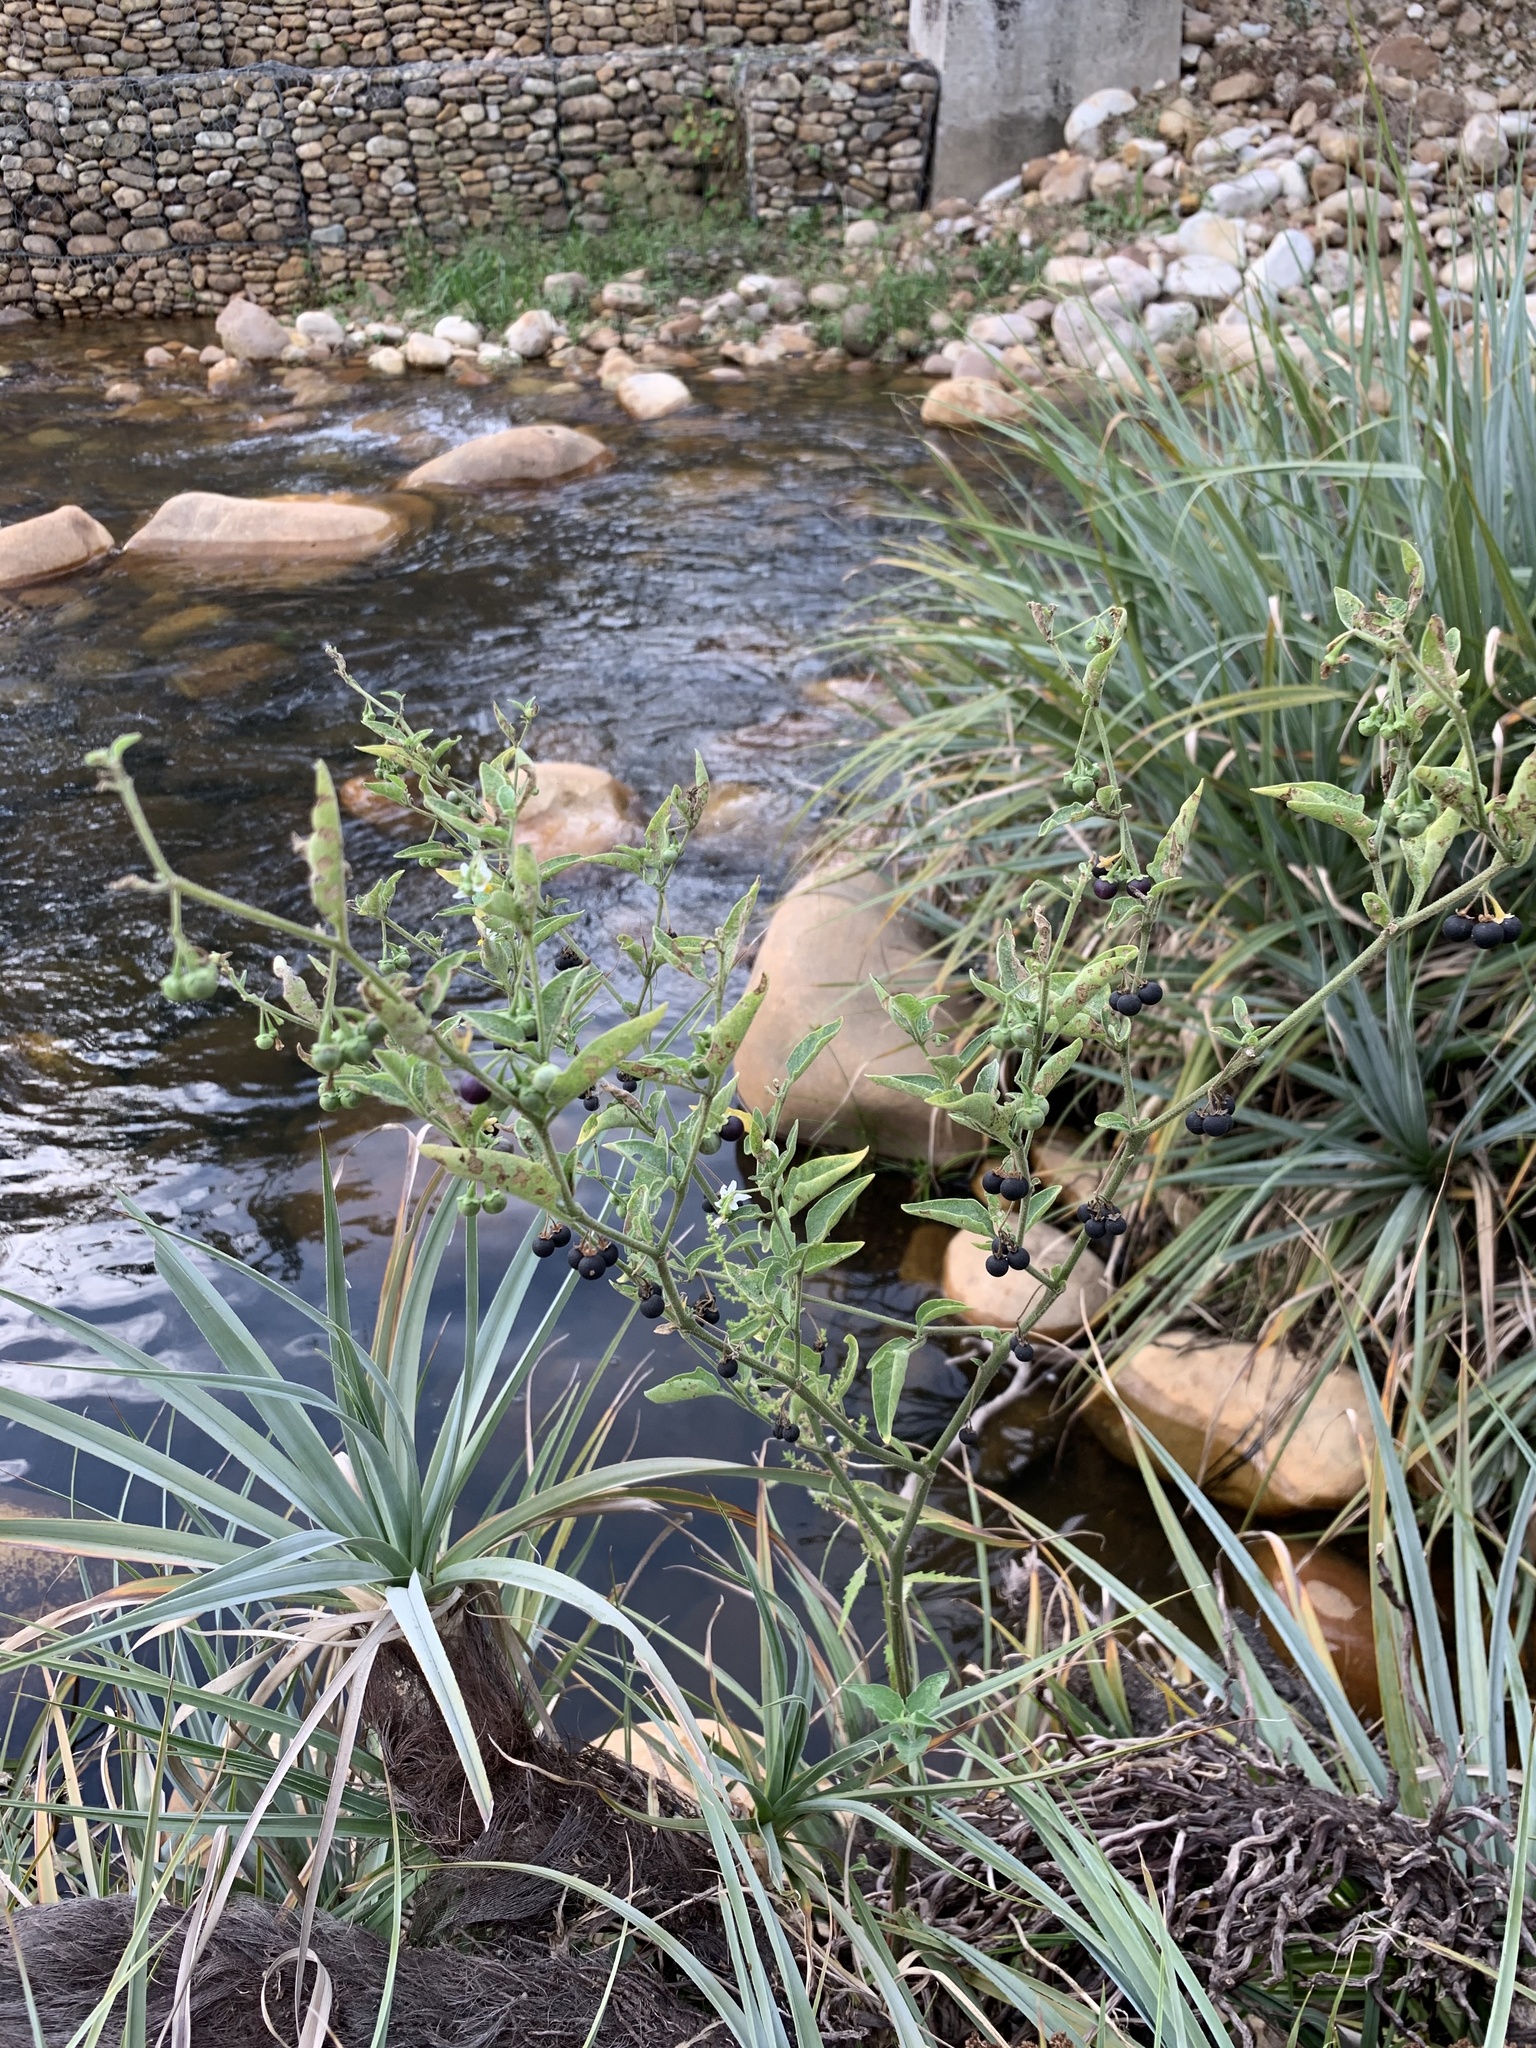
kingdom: Plantae
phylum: Tracheophyta
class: Magnoliopsida
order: Solanales
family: Solanaceae
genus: Solanum
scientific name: Solanum chenopodioides
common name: Tall nightshade
